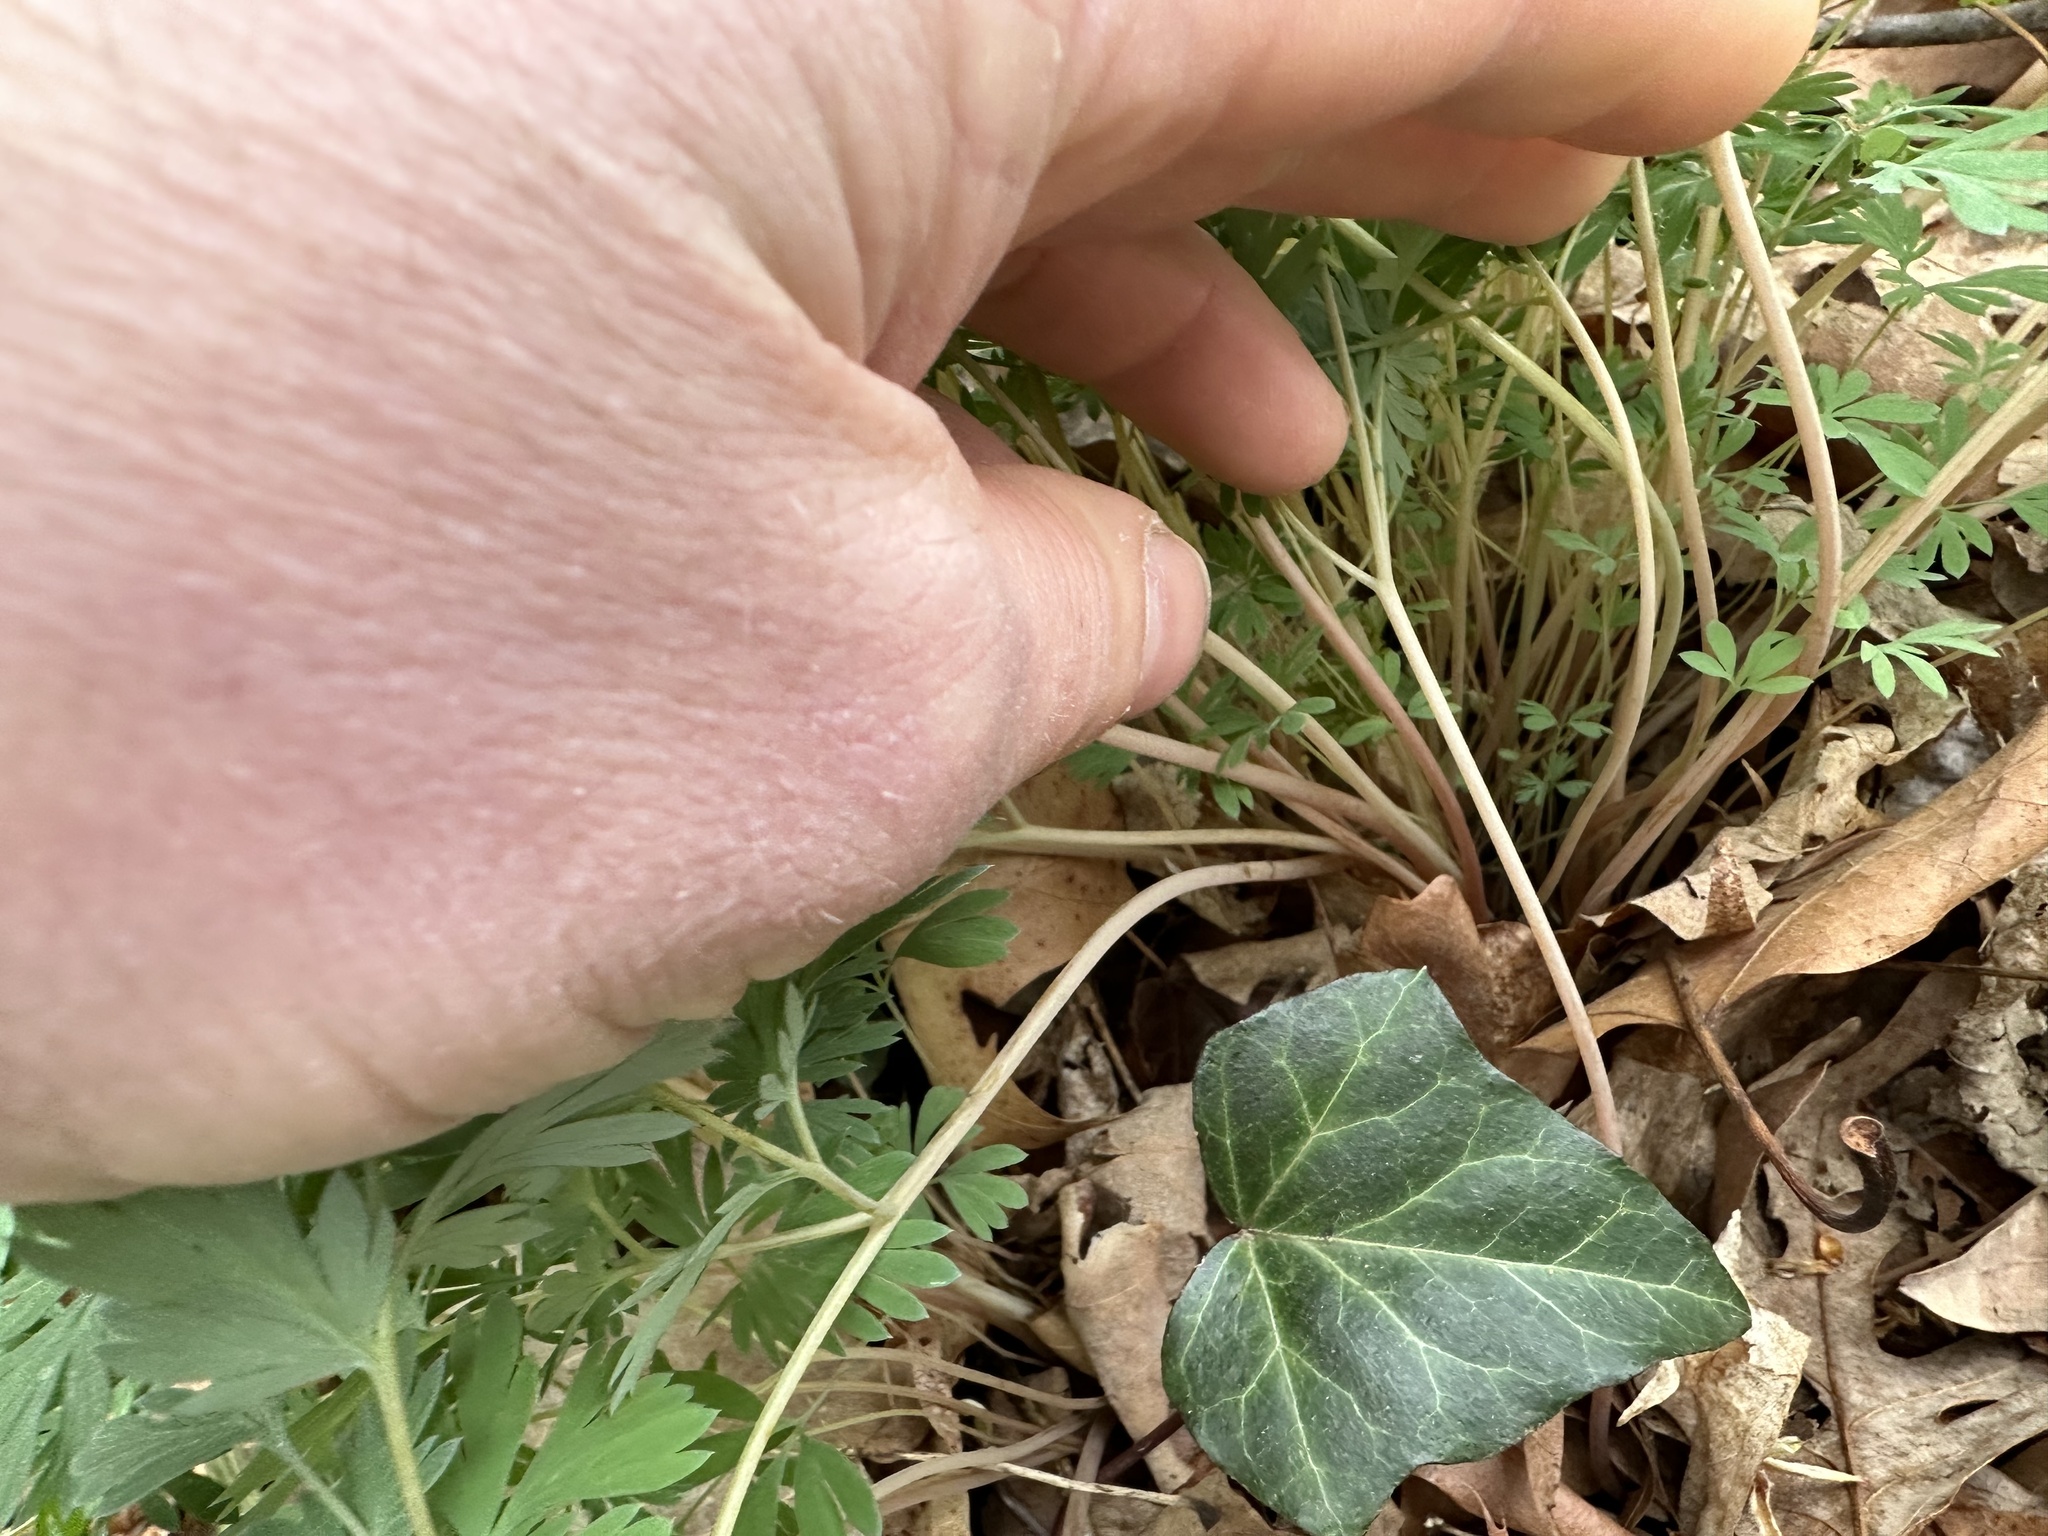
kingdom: Plantae
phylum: Tracheophyta
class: Magnoliopsida
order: Ranunculales
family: Papaveraceae
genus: Dicentra
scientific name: Dicentra cucullaria
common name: Dutchman's breeches
